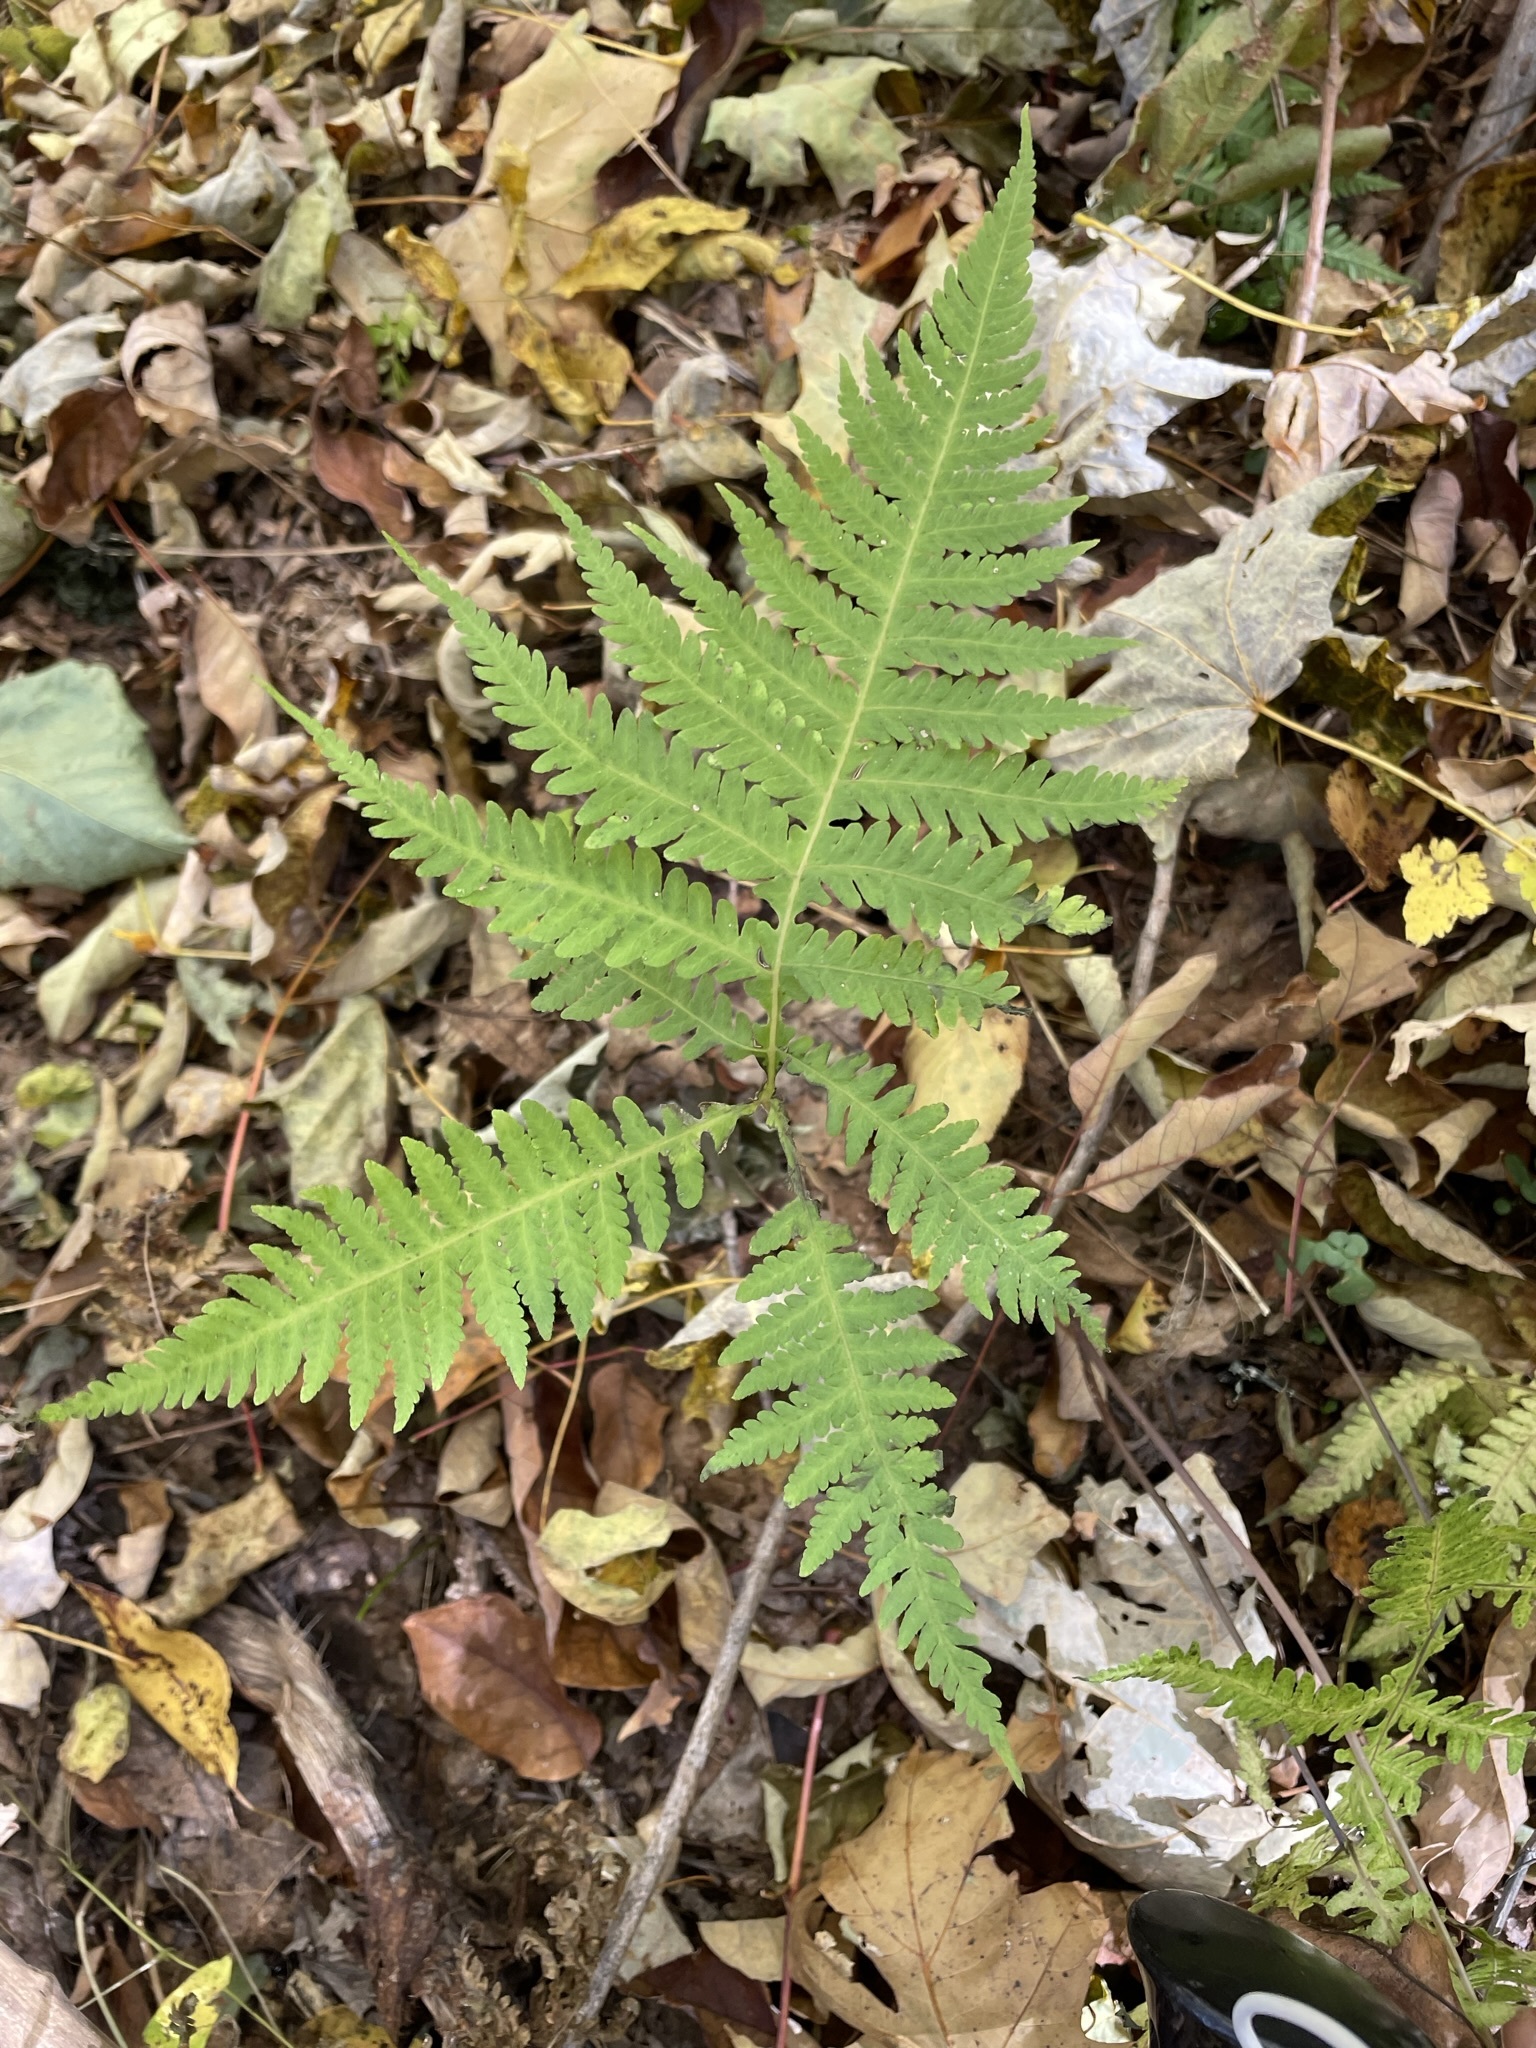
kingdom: Plantae
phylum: Tracheophyta
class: Polypodiopsida
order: Polypodiales
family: Thelypteridaceae
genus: Phegopteris
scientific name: Phegopteris hexagonoptera
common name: Broad beech fern
